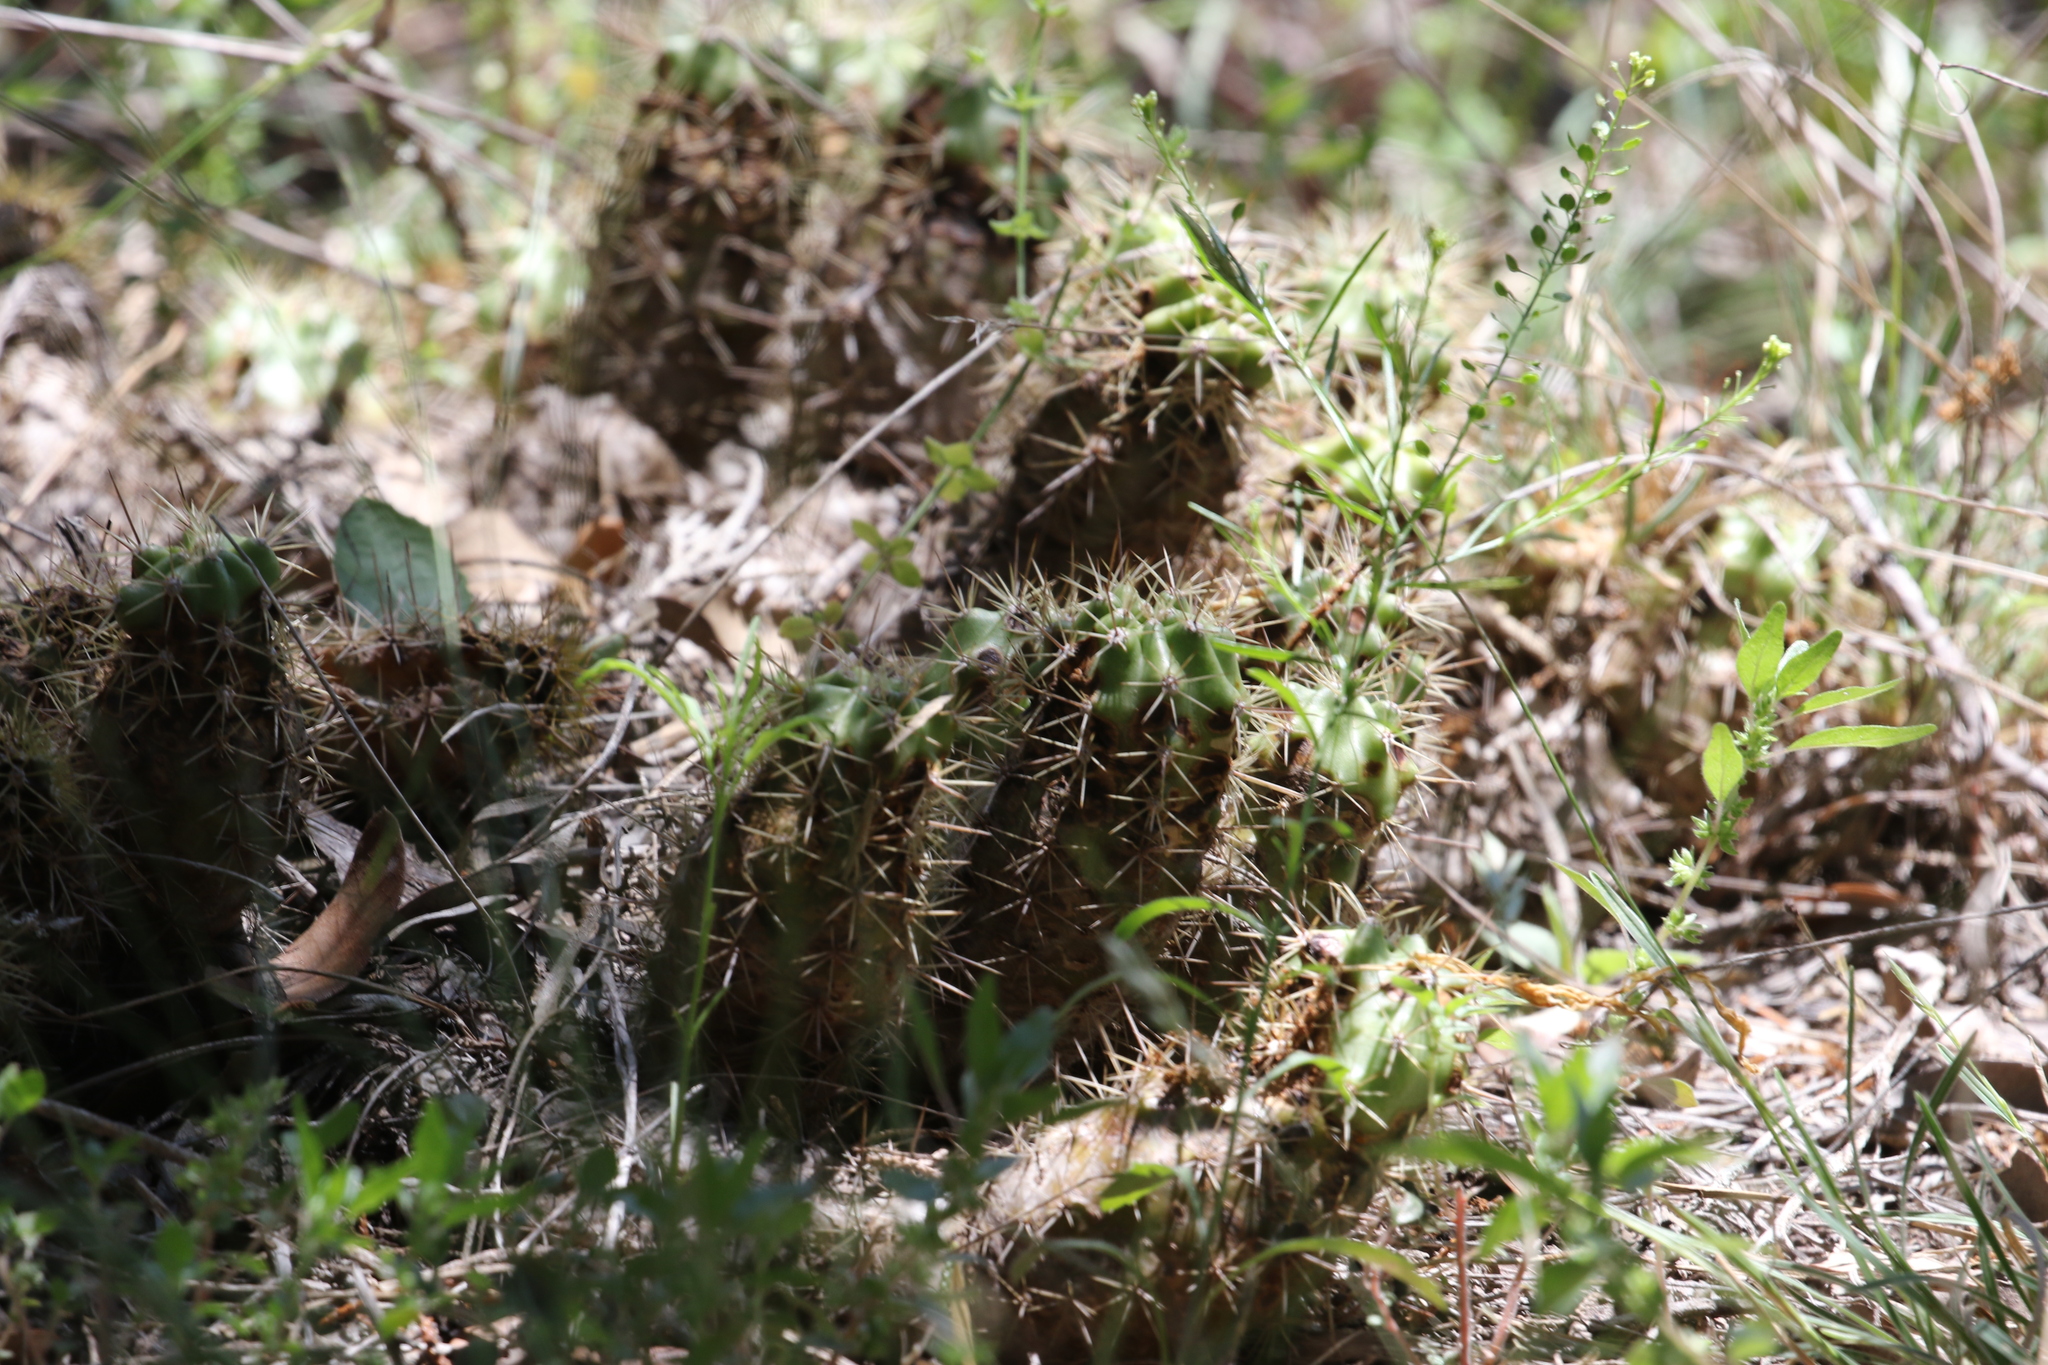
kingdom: Plantae
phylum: Tracheophyta
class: Magnoliopsida
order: Caryophyllales
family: Cactaceae
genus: Echinocereus
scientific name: Echinocereus coccineus
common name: Scarlet hedgehog cactus
